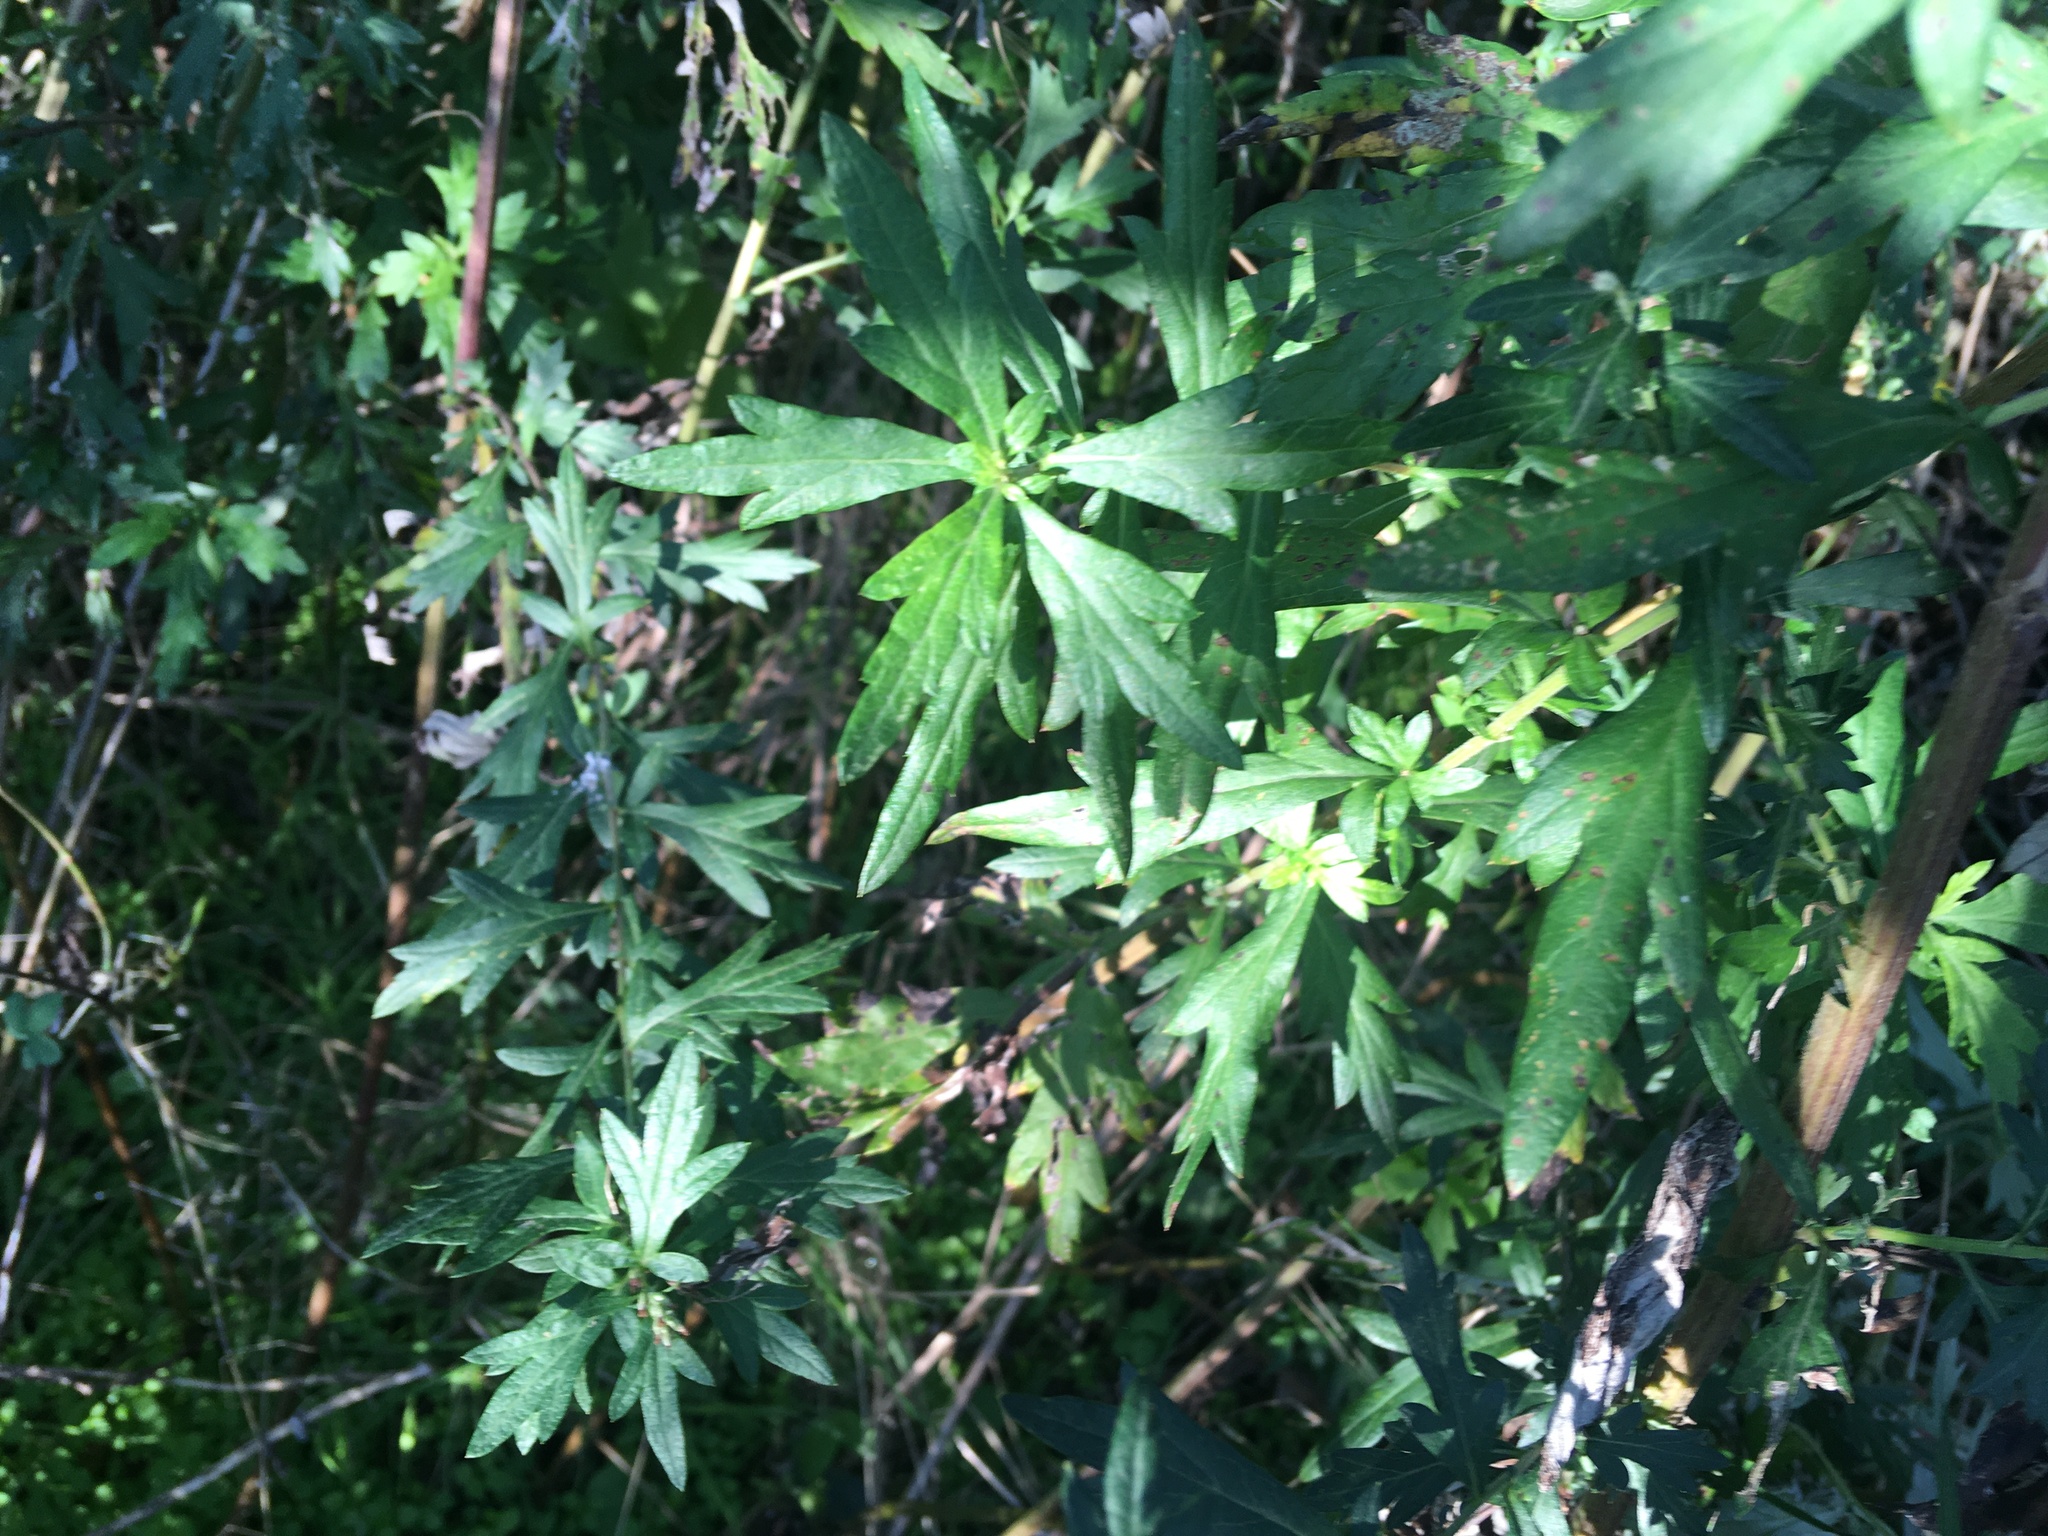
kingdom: Plantae
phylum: Tracheophyta
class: Magnoliopsida
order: Asterales
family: Asteraceae
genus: Artemisia
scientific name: Artemisia vulgaris
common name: Mugwort
